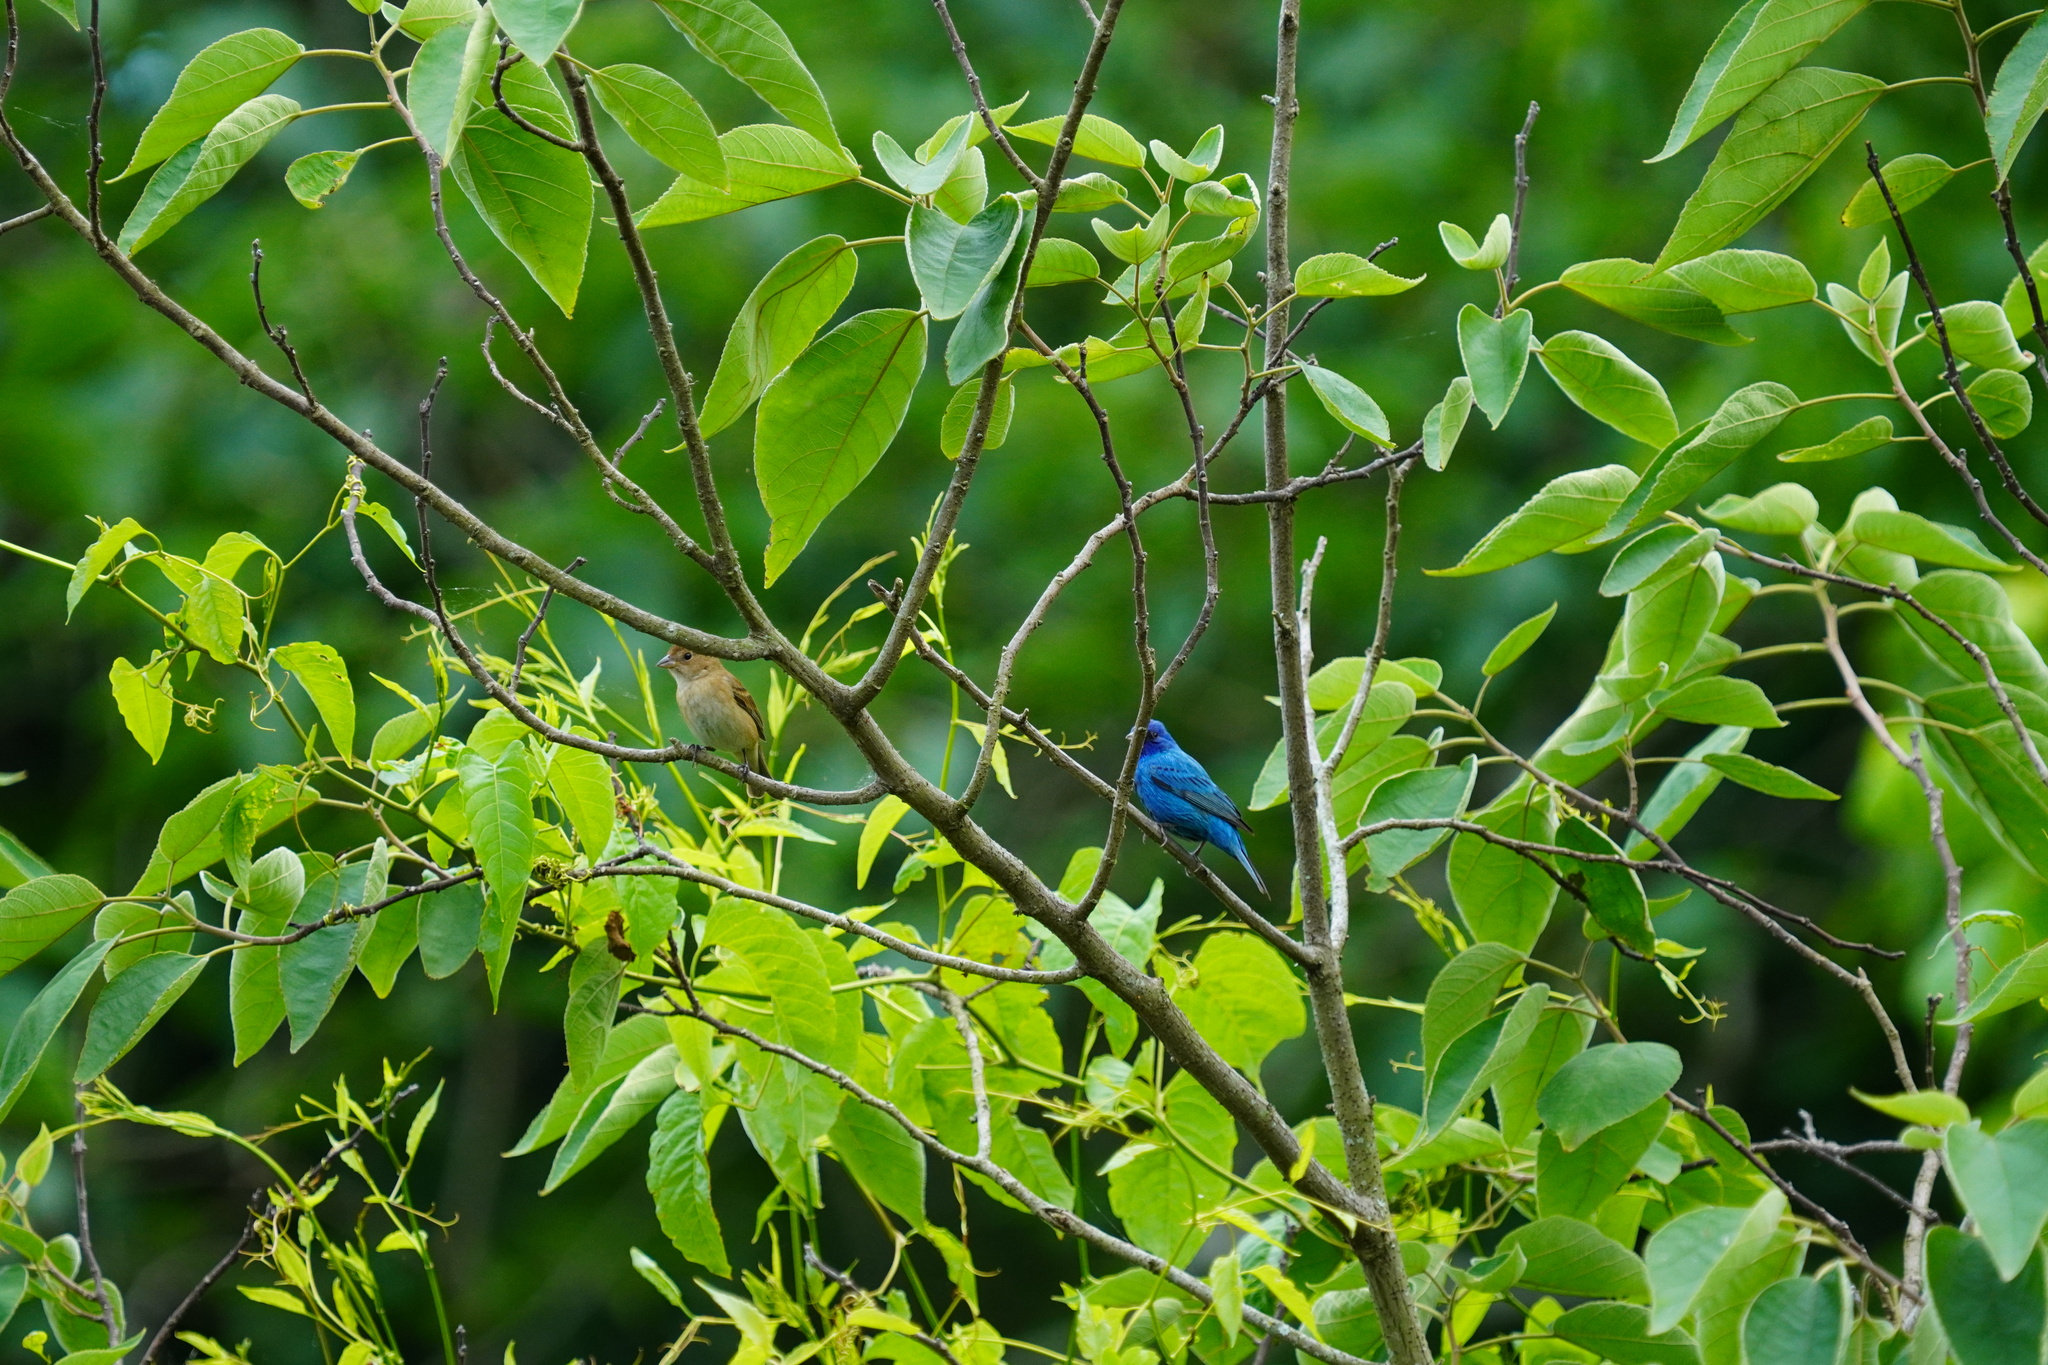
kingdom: Animalia
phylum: Chordata
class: Aves
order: Passeriformes
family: Cardinalidae
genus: Passerina
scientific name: Passerina cyanea
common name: Indigo bunting
